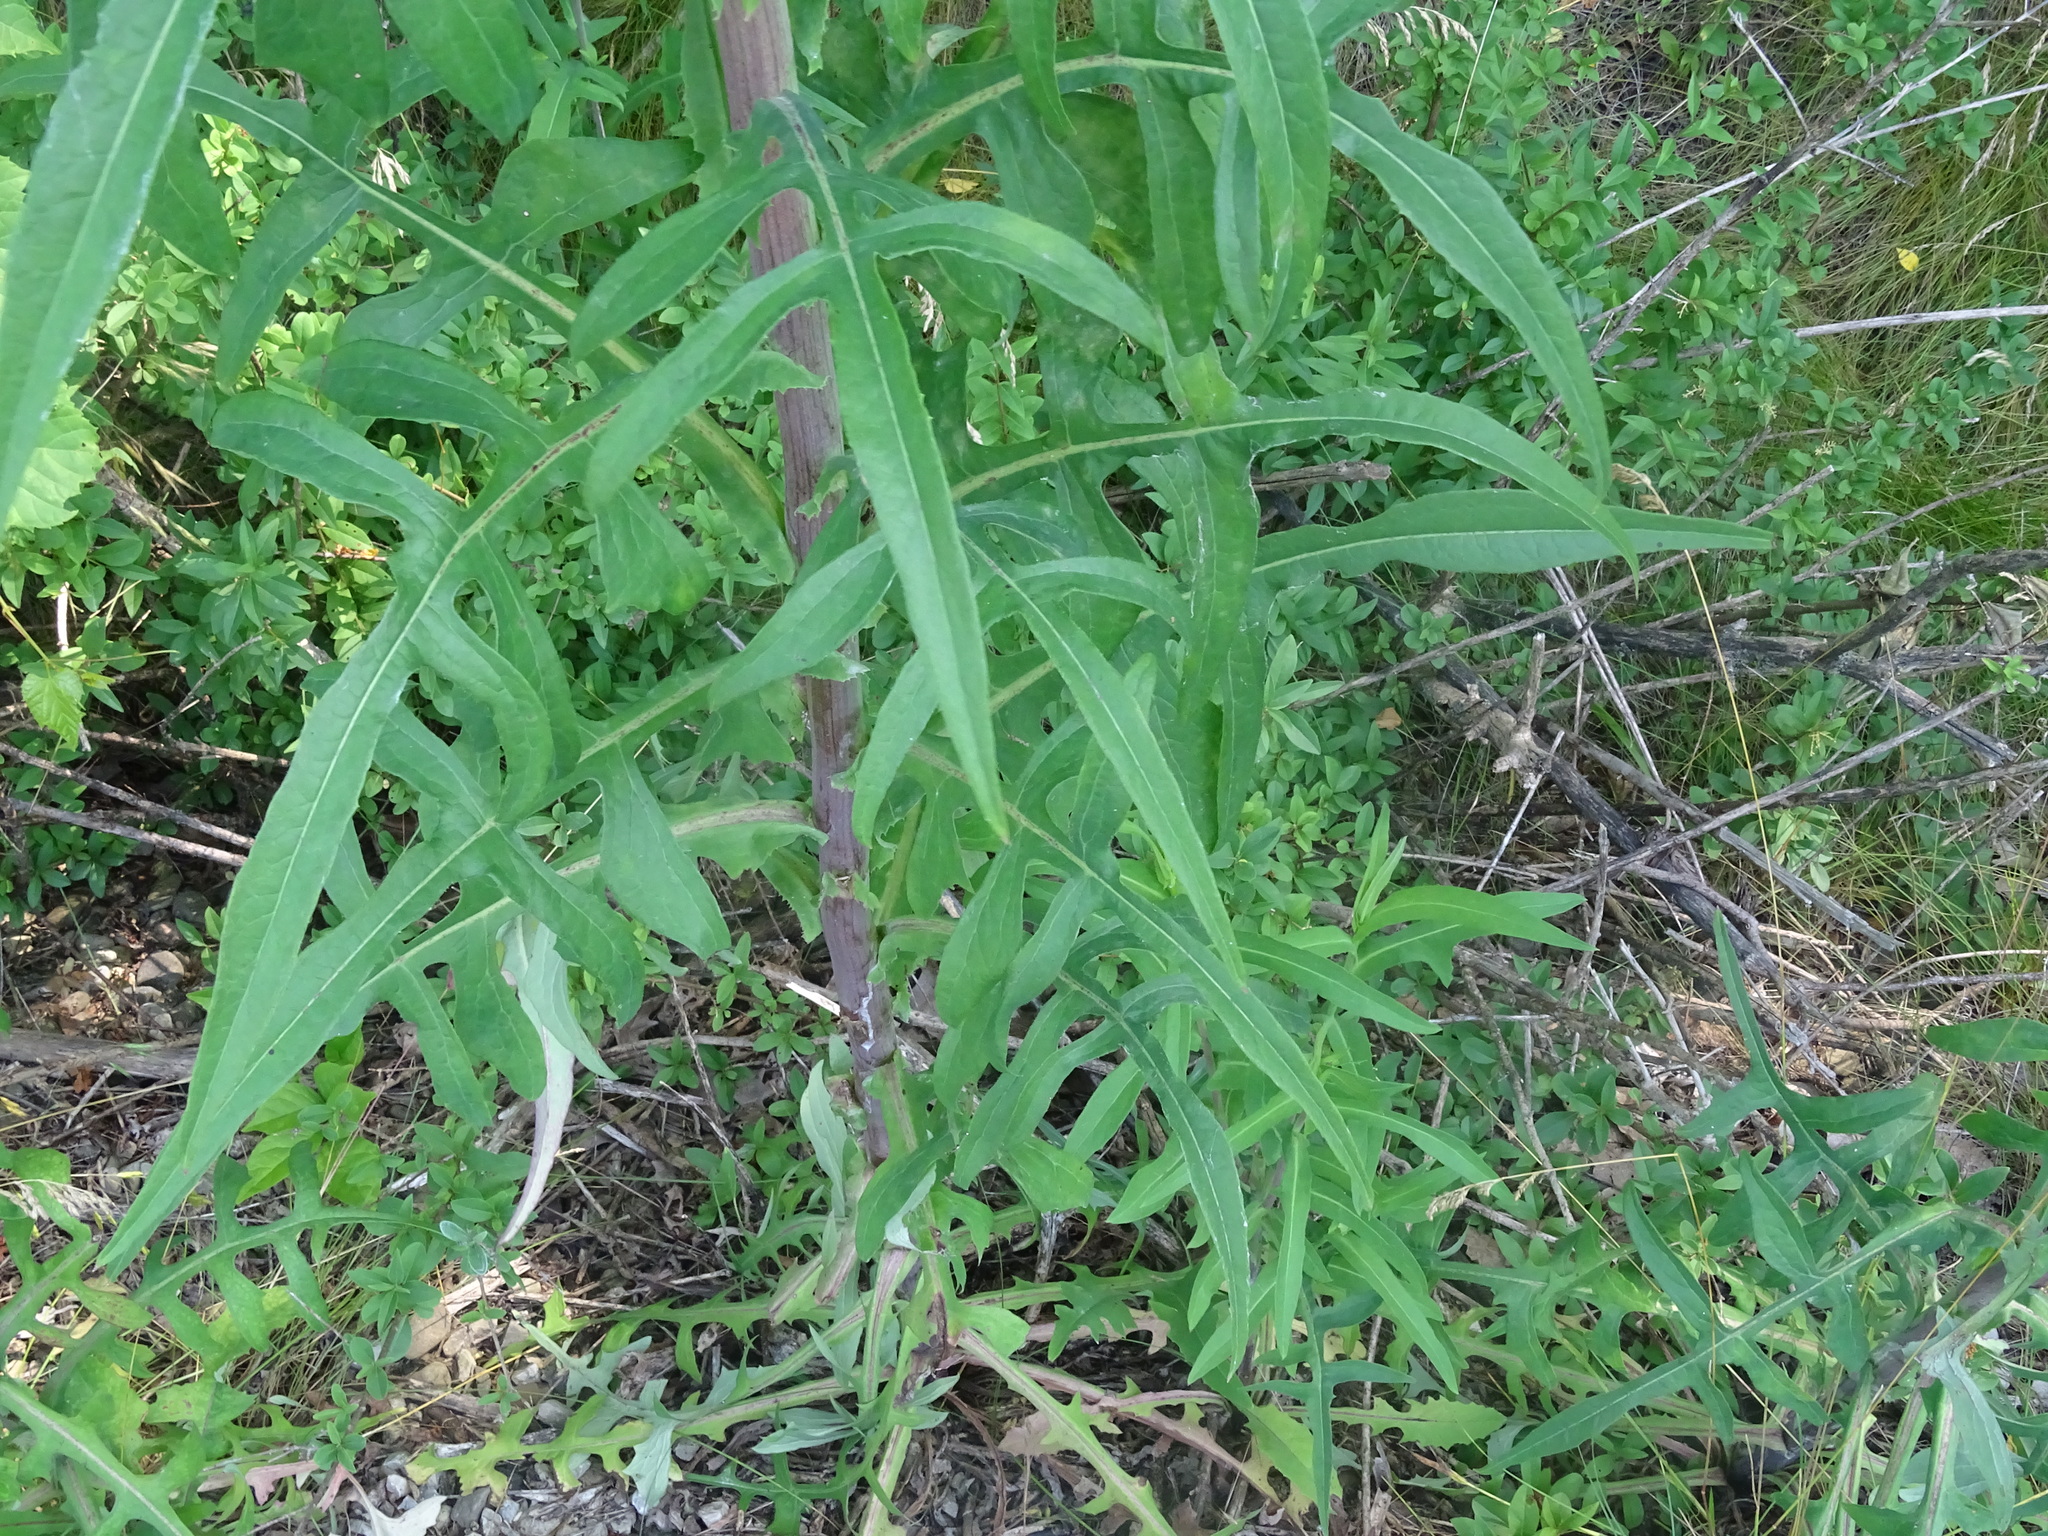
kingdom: Plantae
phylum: Tracheophyta
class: Magnoliopsida
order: Asterales
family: Asteraceae
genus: Lactuca
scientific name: Lactuca canadensis
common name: Canada lettuce
